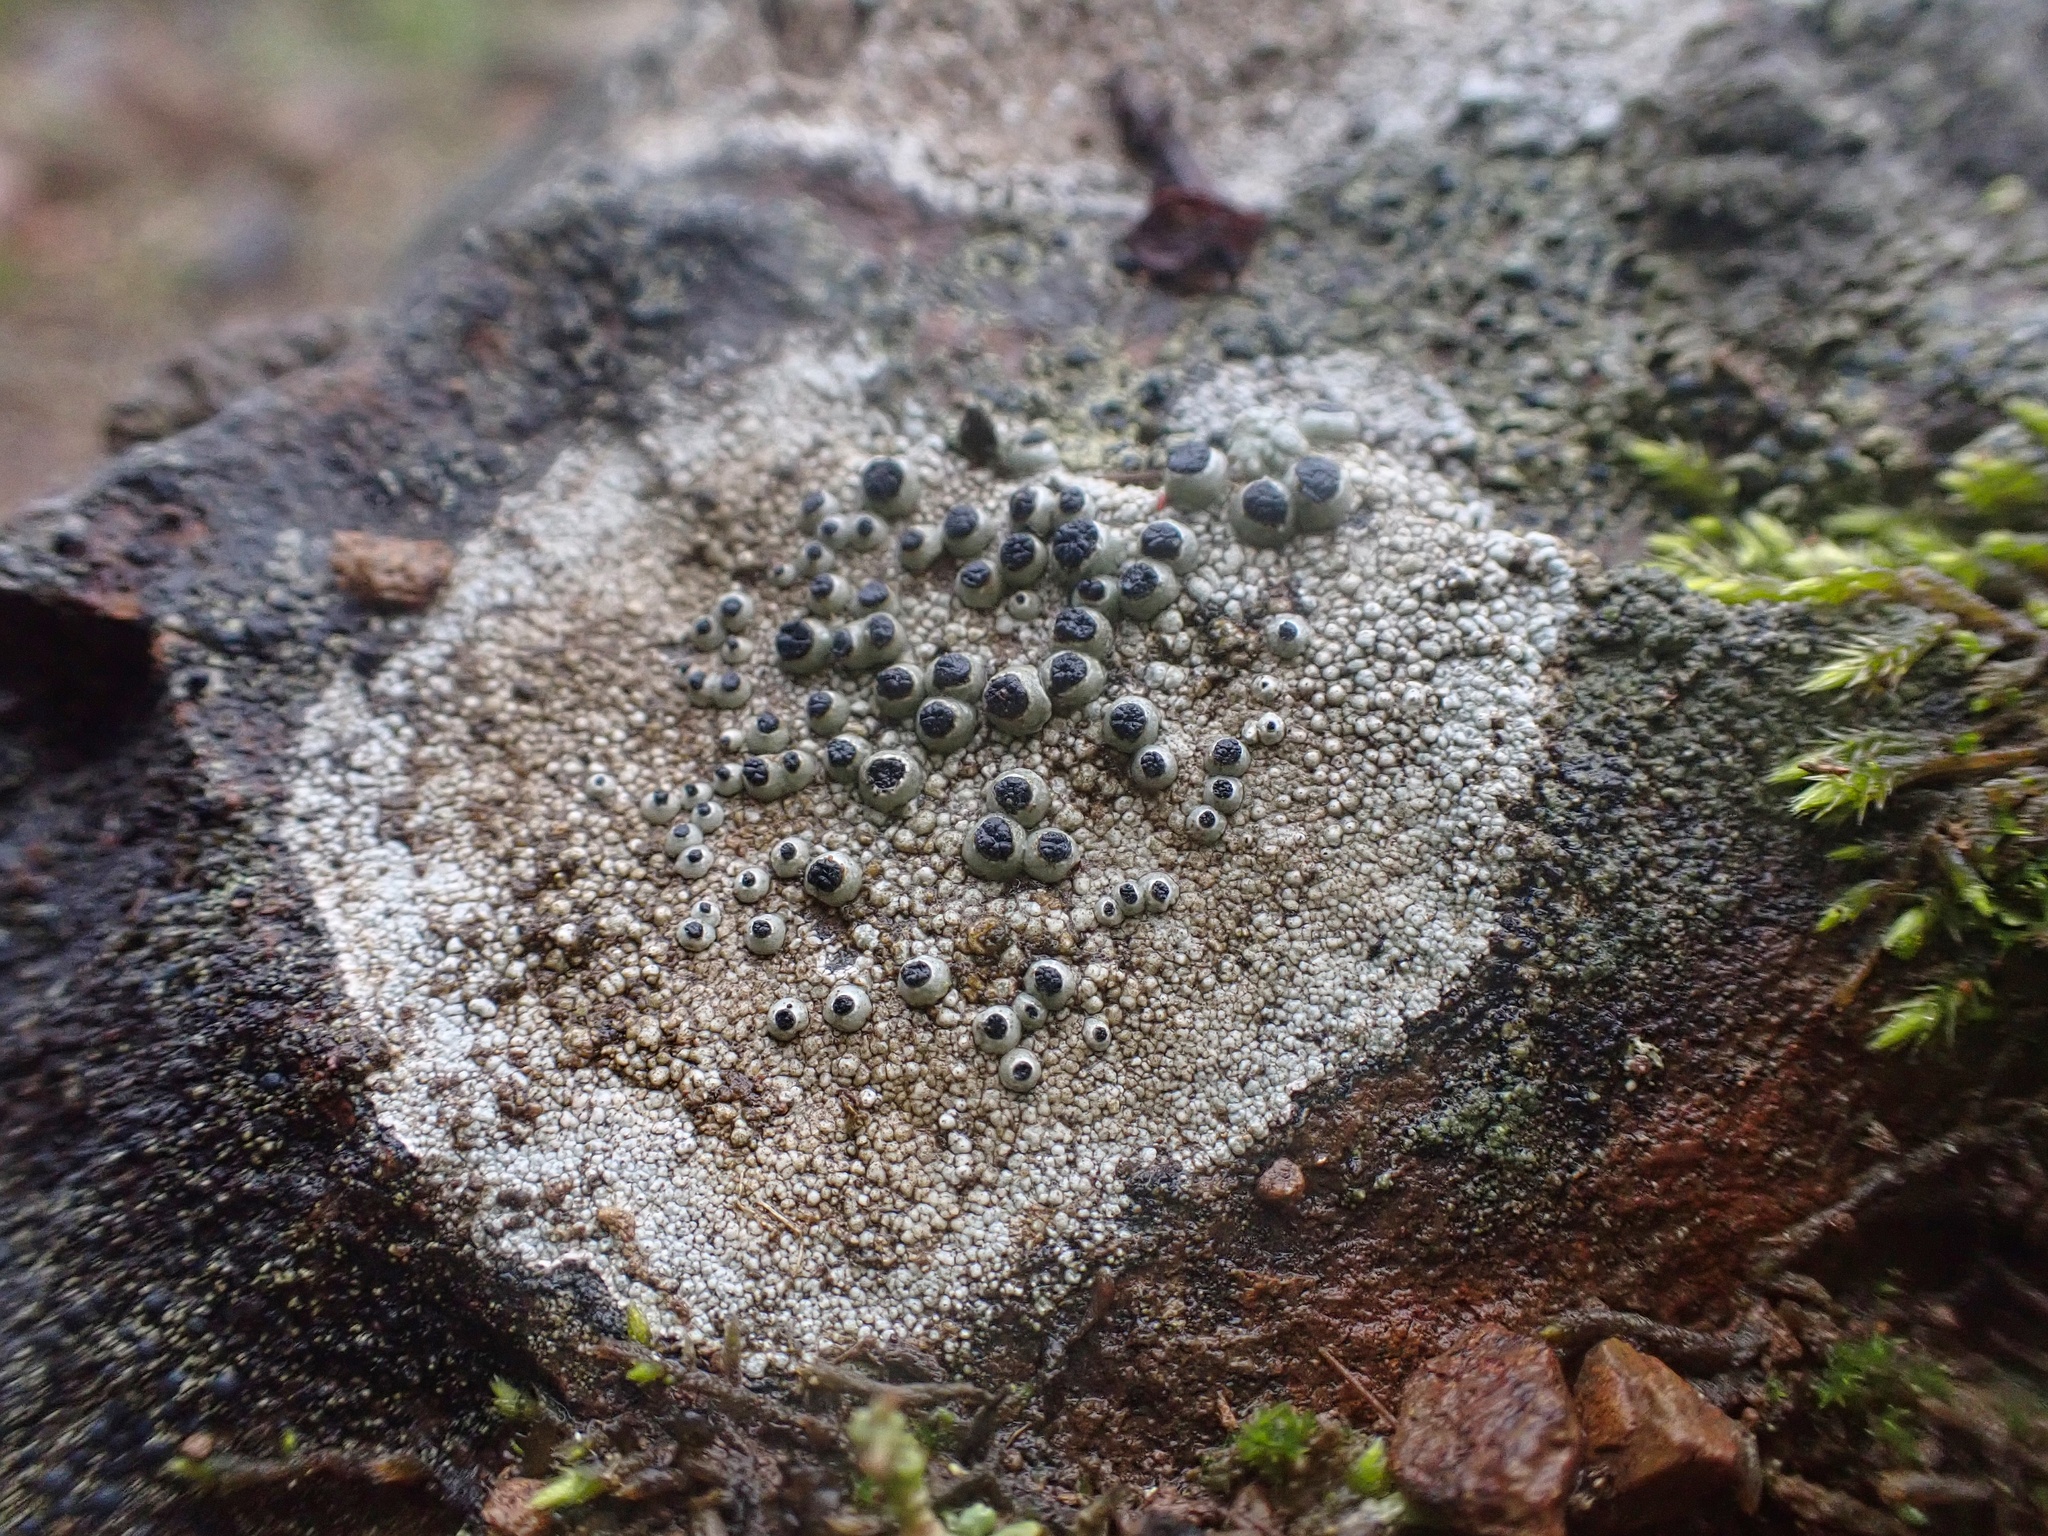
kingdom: Fungi
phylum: Ascomycota
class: Lecanoromycetes
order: Caliciales
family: Caliciaceae
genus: Thelomma
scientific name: Thelomma mammosum
